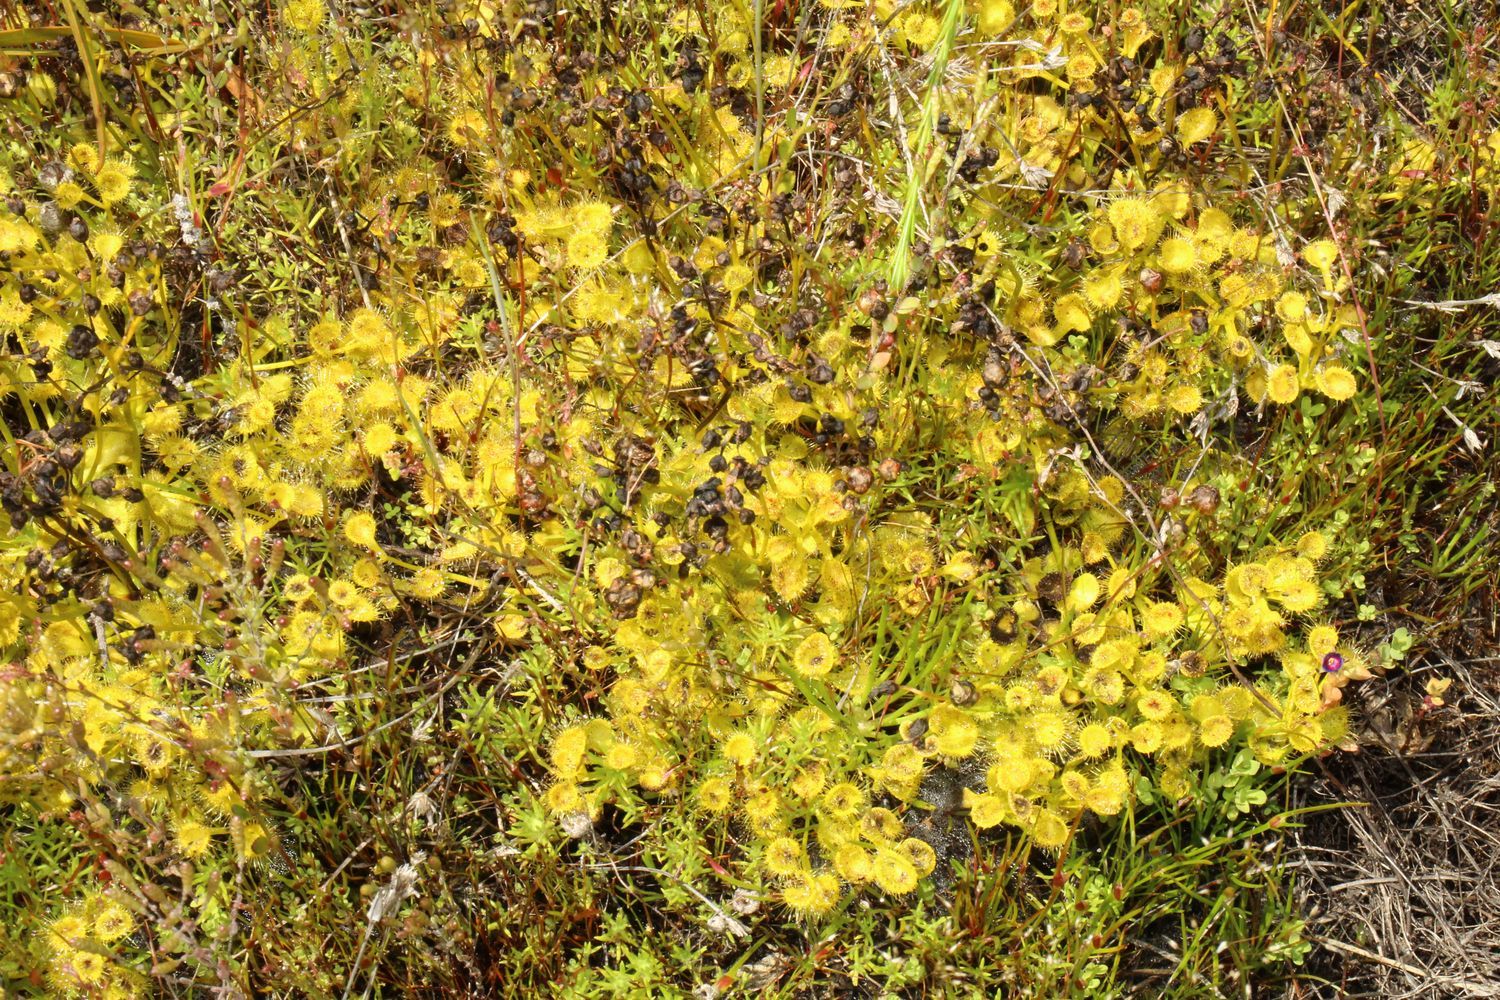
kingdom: Plantae
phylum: Tracheophyta
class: Magnoliopsida
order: Caryophyllales
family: Droseraceae
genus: Drosera
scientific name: Drosera rupicola
